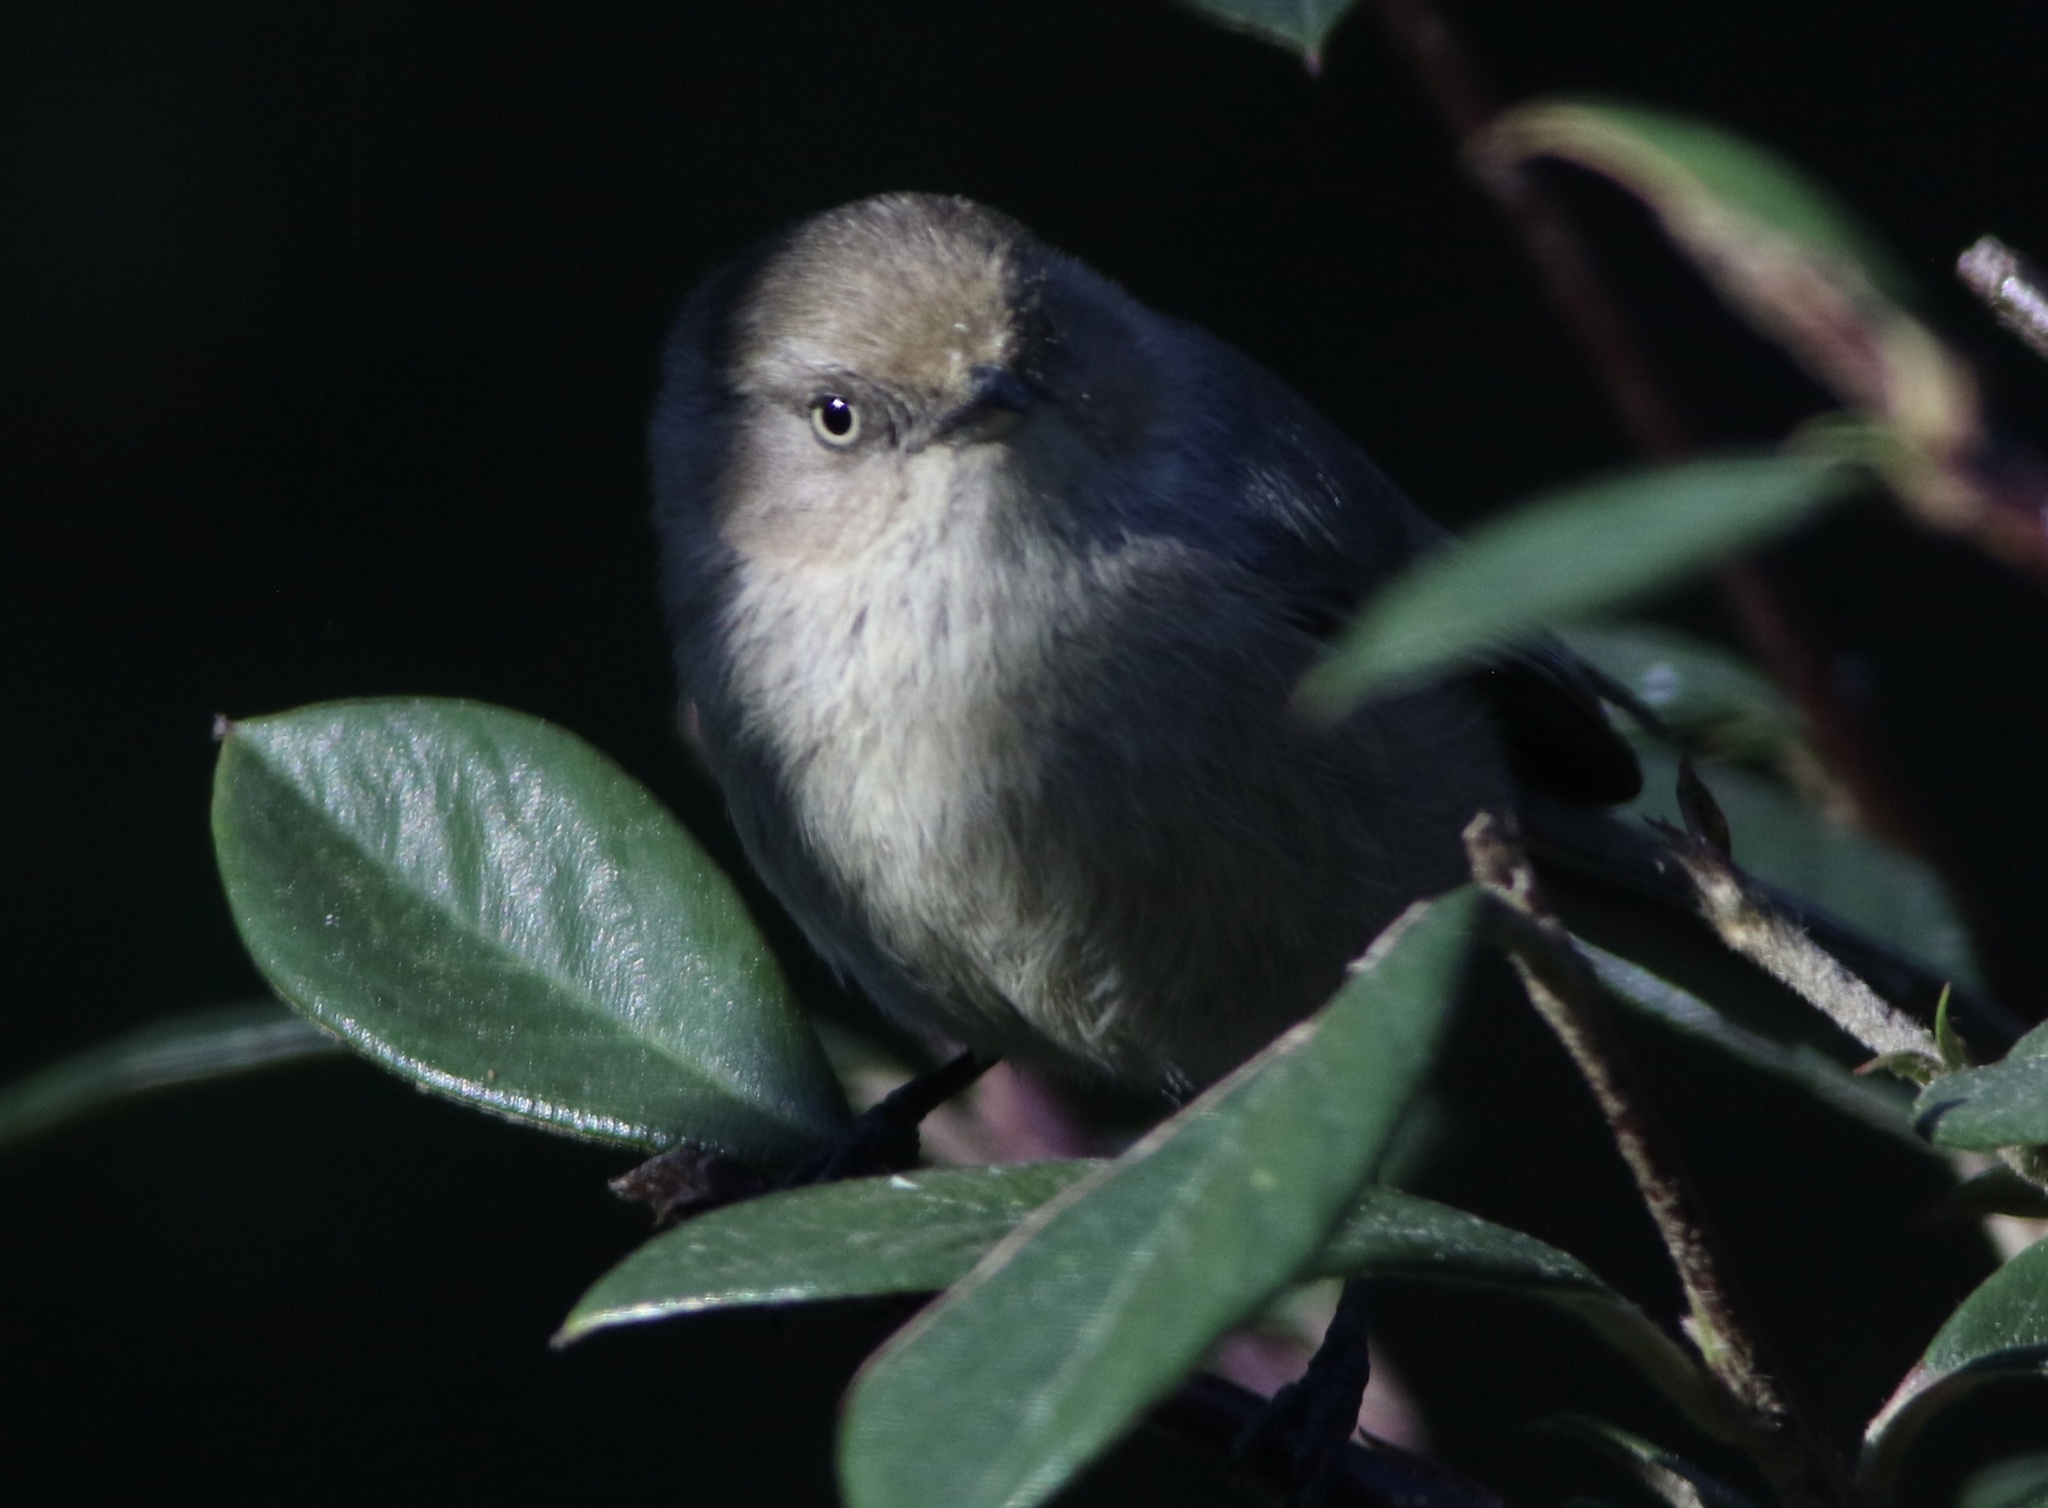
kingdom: Animalia
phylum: Chordata
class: Aves
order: Passeriformes
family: Aegithalidae
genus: Psaltriparus
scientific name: Psaltriparus minimus
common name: American bushtit
